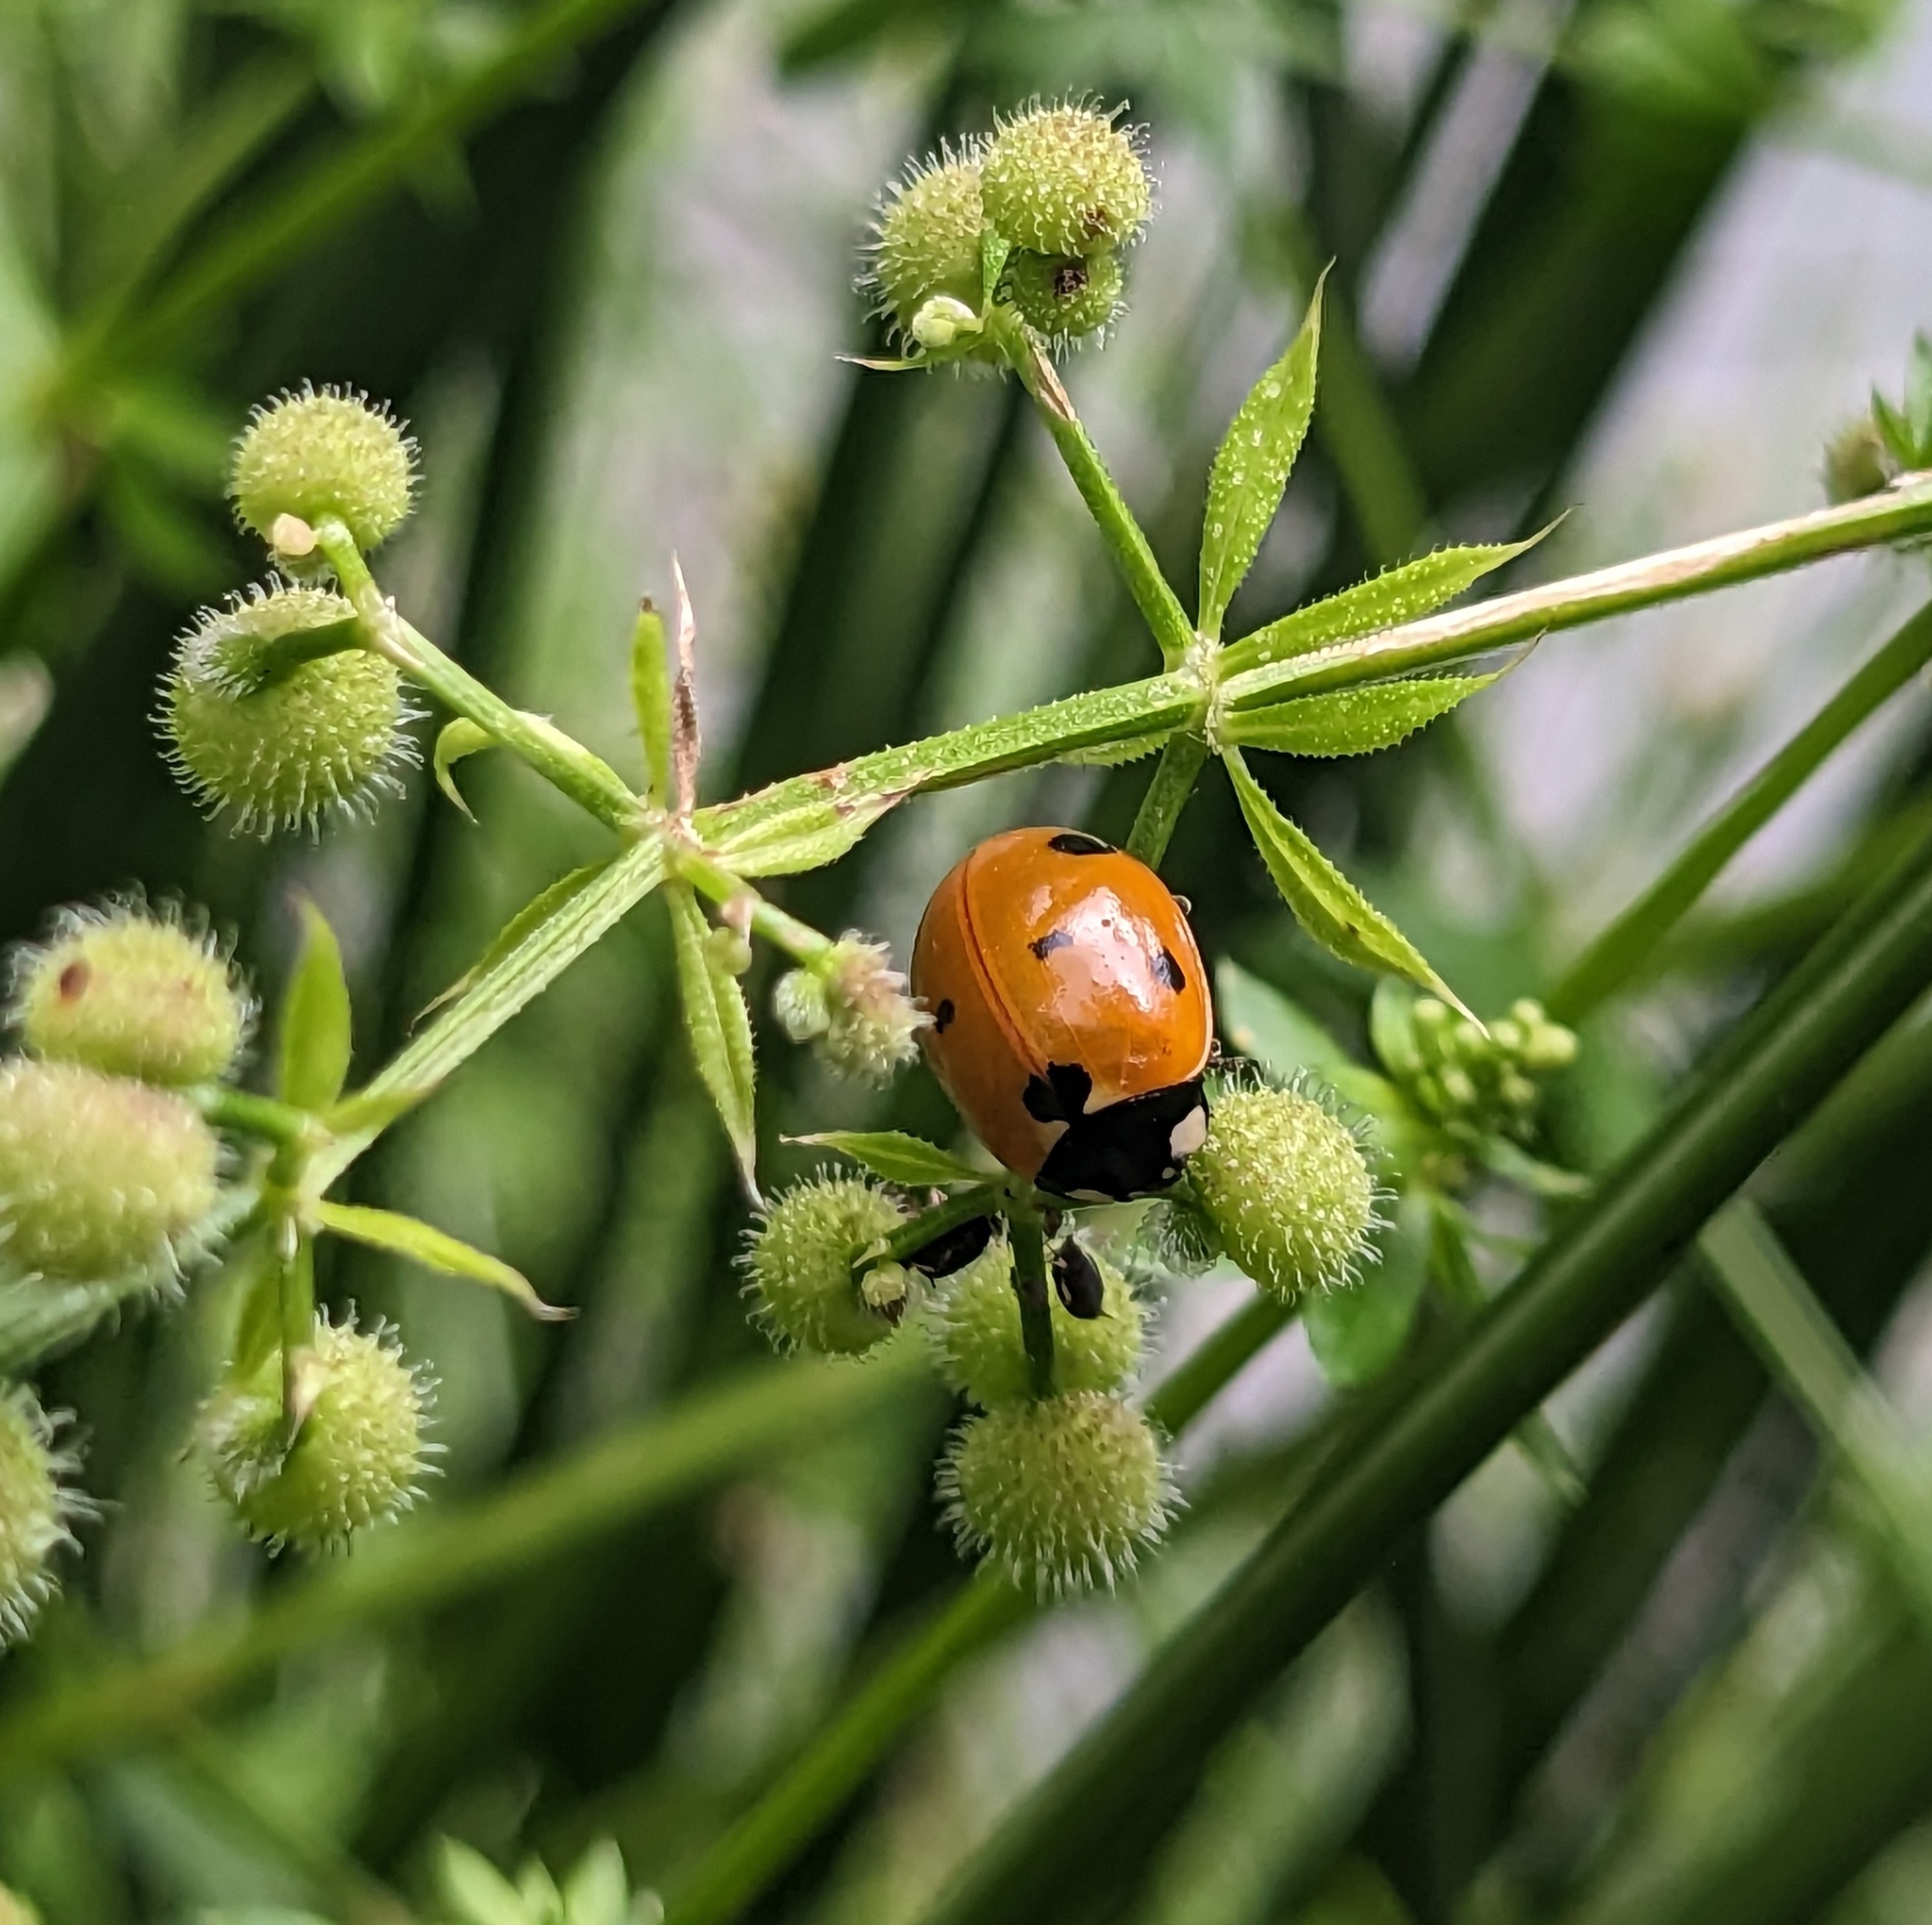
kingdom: Animalia
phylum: Arthropoda
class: Insecta
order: Coleoptera
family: Coccinellidae
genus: Coccinella
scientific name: Coccinella septempunctata
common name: Sevenspotted lady beetle
